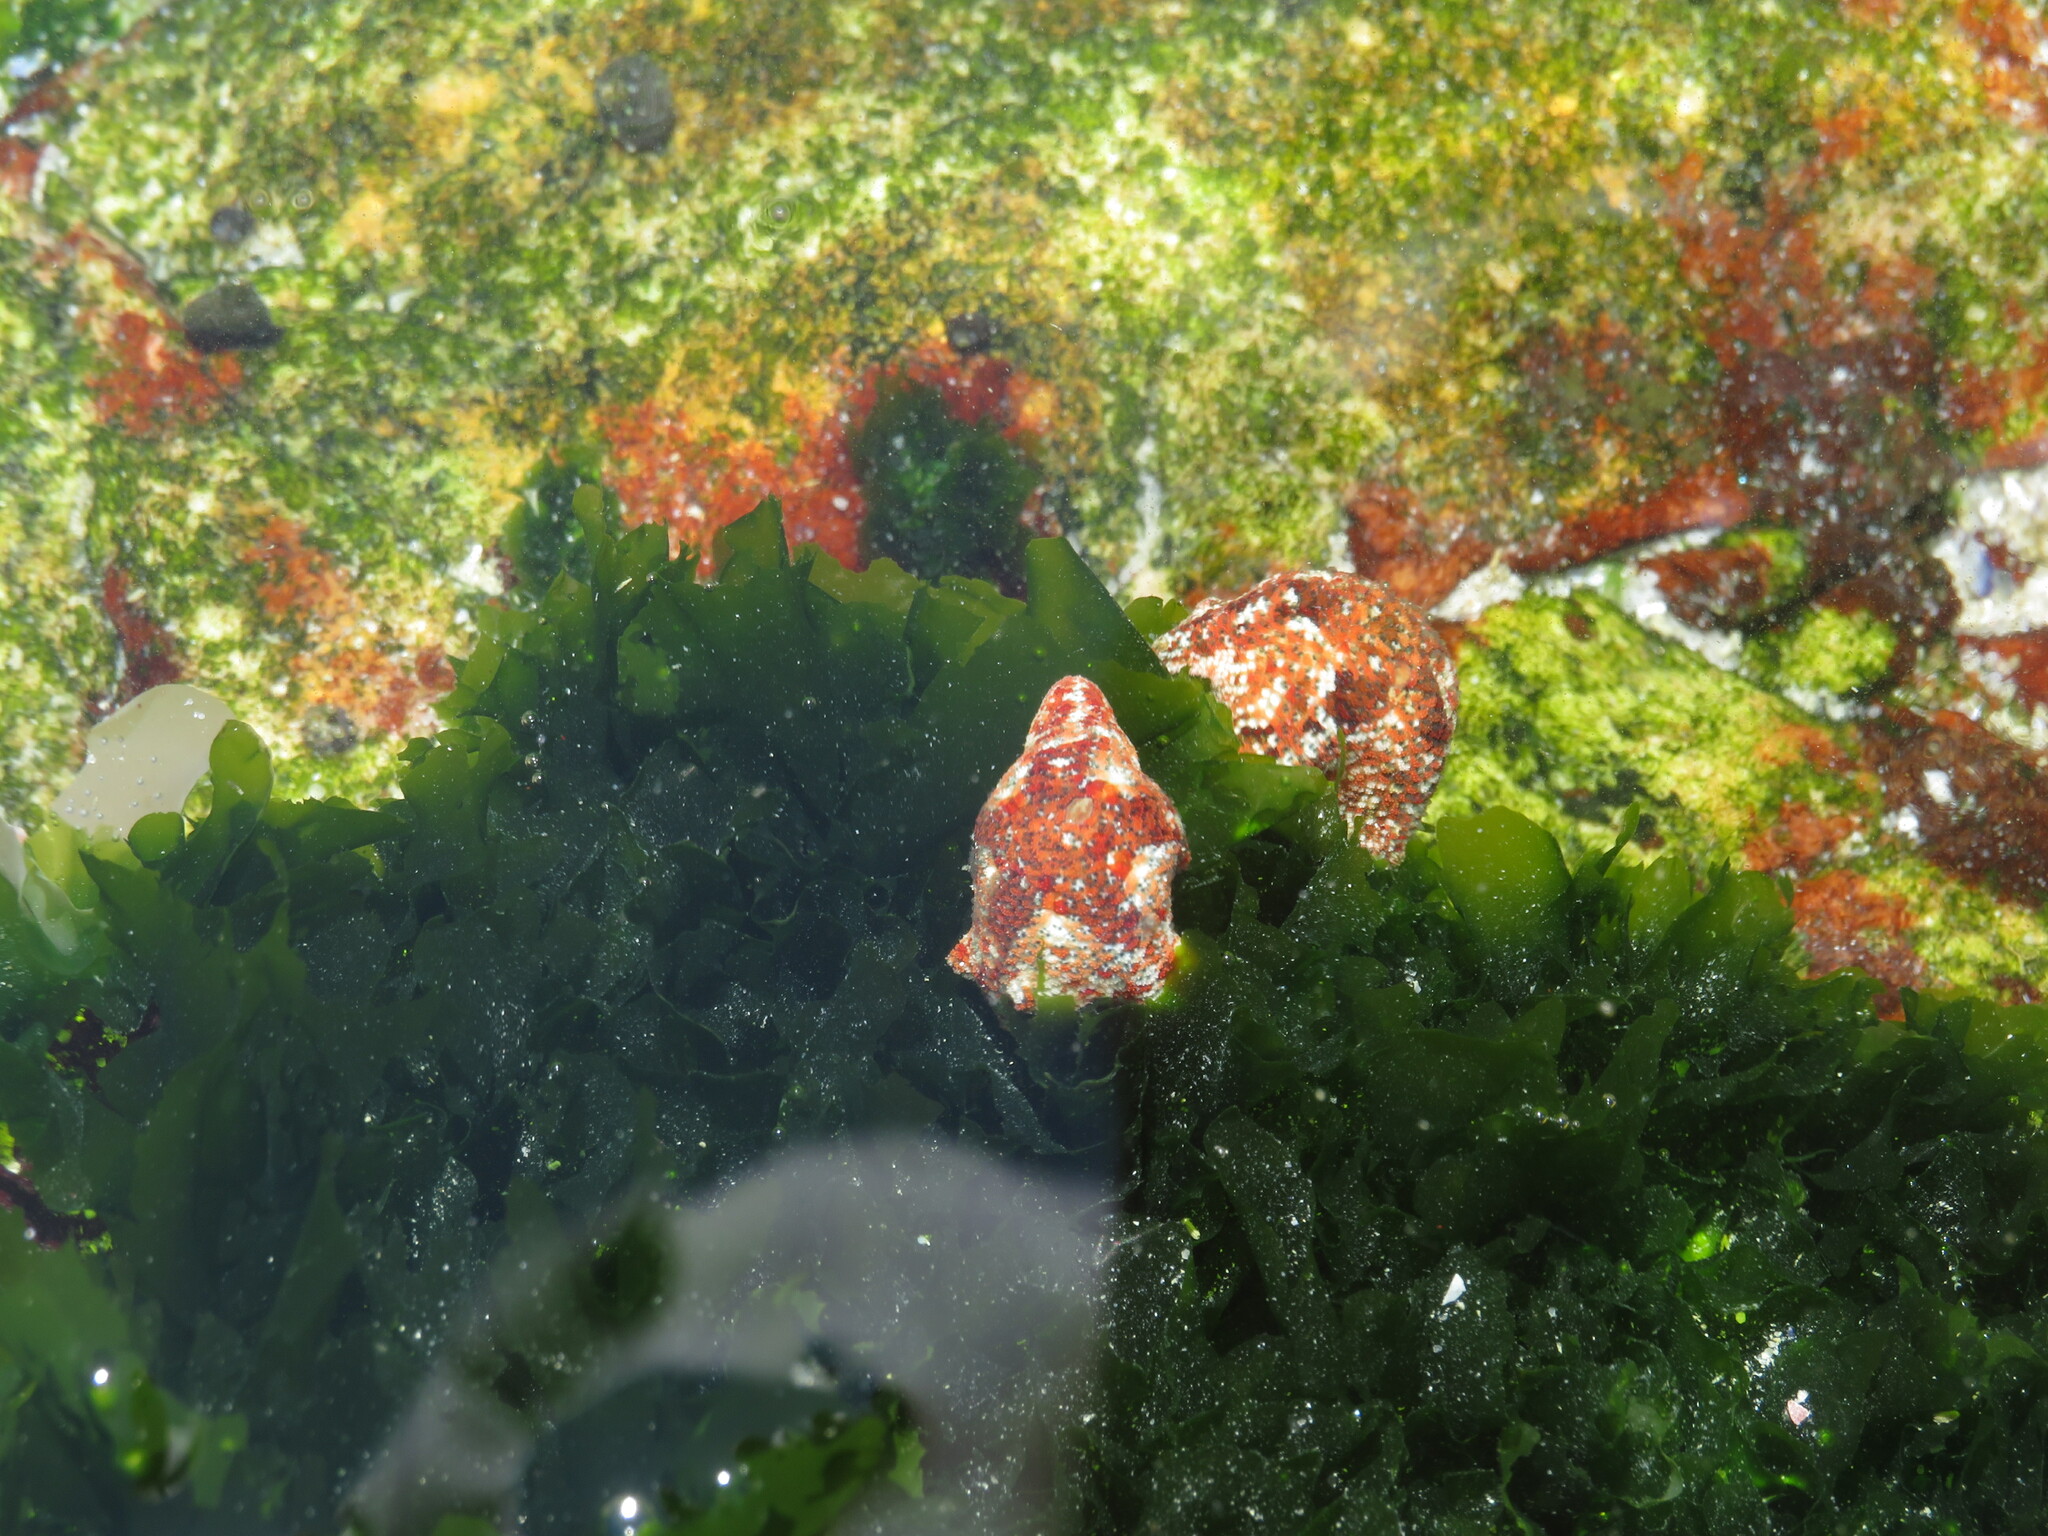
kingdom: Plantae
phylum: Chlorophyta
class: Ulvophyceae
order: Ulvales
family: Ulvaceae
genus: Ulva
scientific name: Ulva lactuca
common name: Sea lettuce
